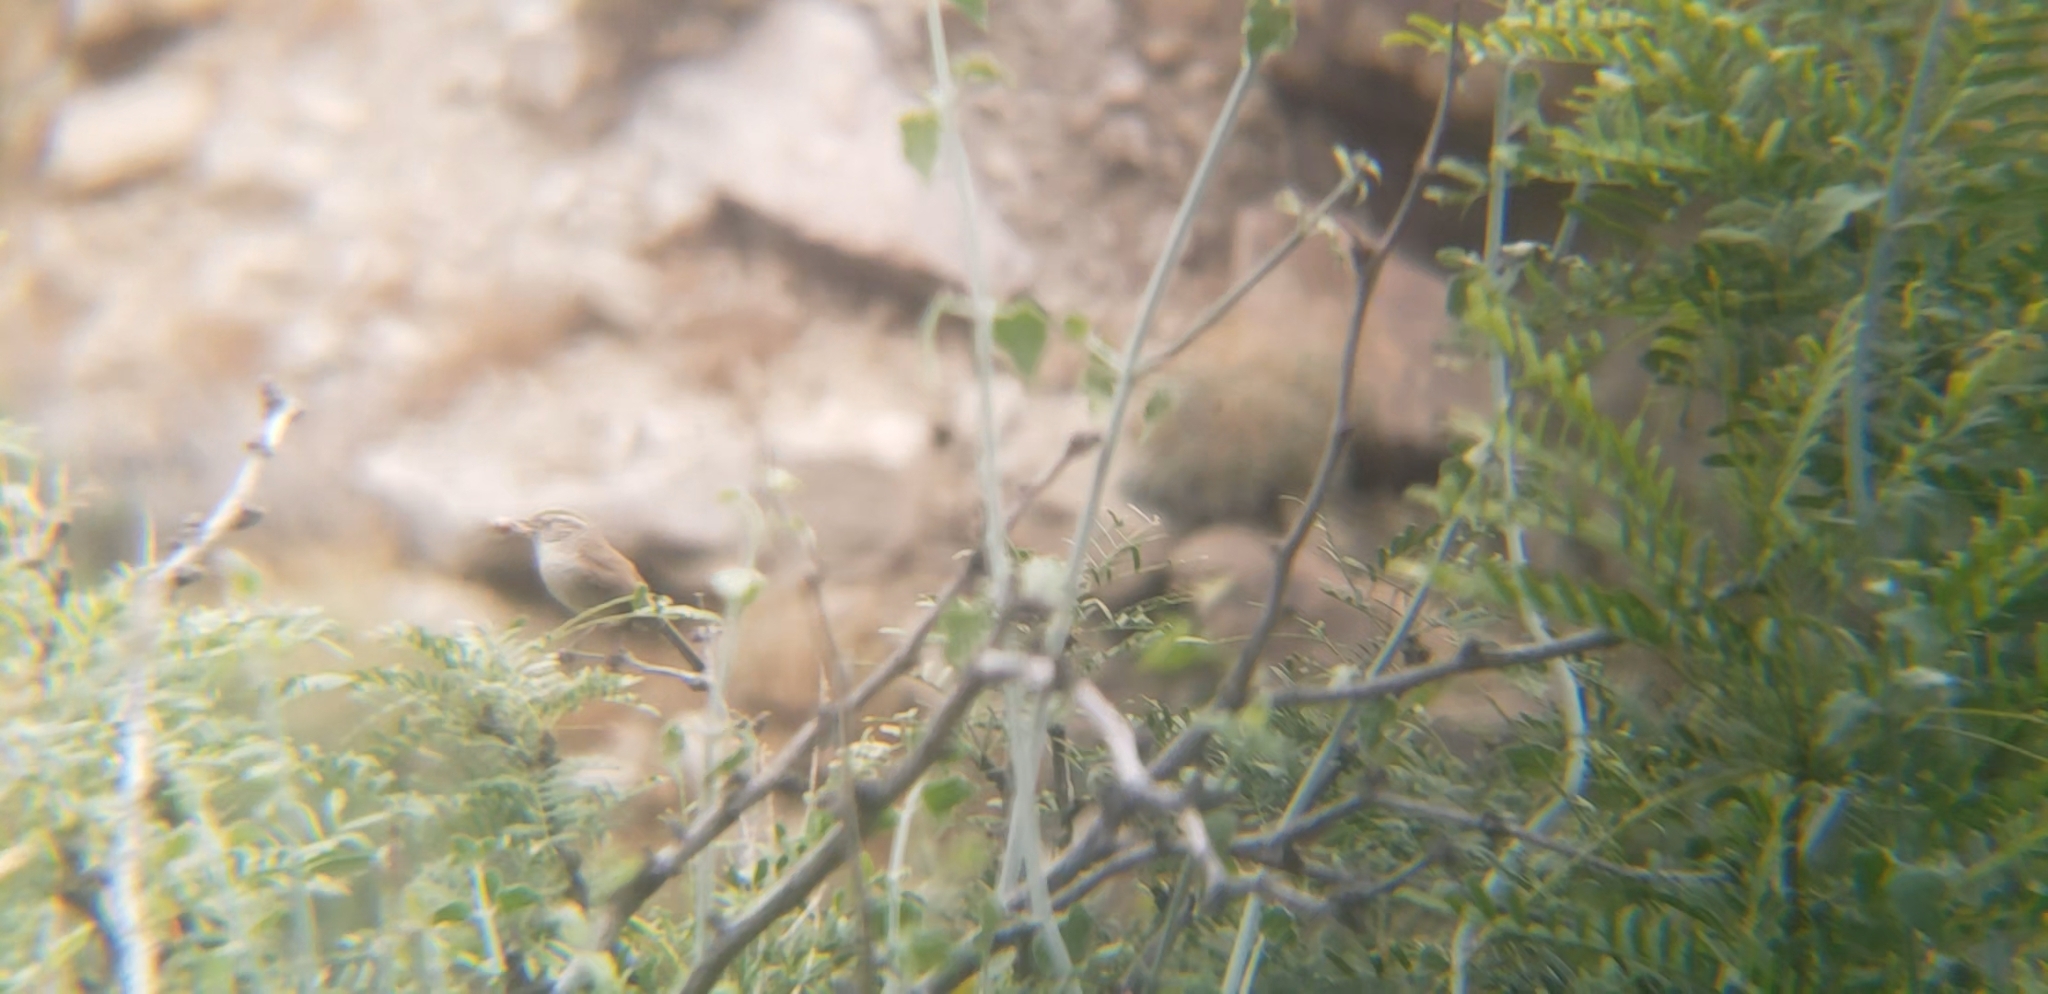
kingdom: Animalia
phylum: Chordata
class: Aves
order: Passeriformes
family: Troglodytidae
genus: Thryomanes
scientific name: Thryomanes bewickii
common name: Bewick's wren
